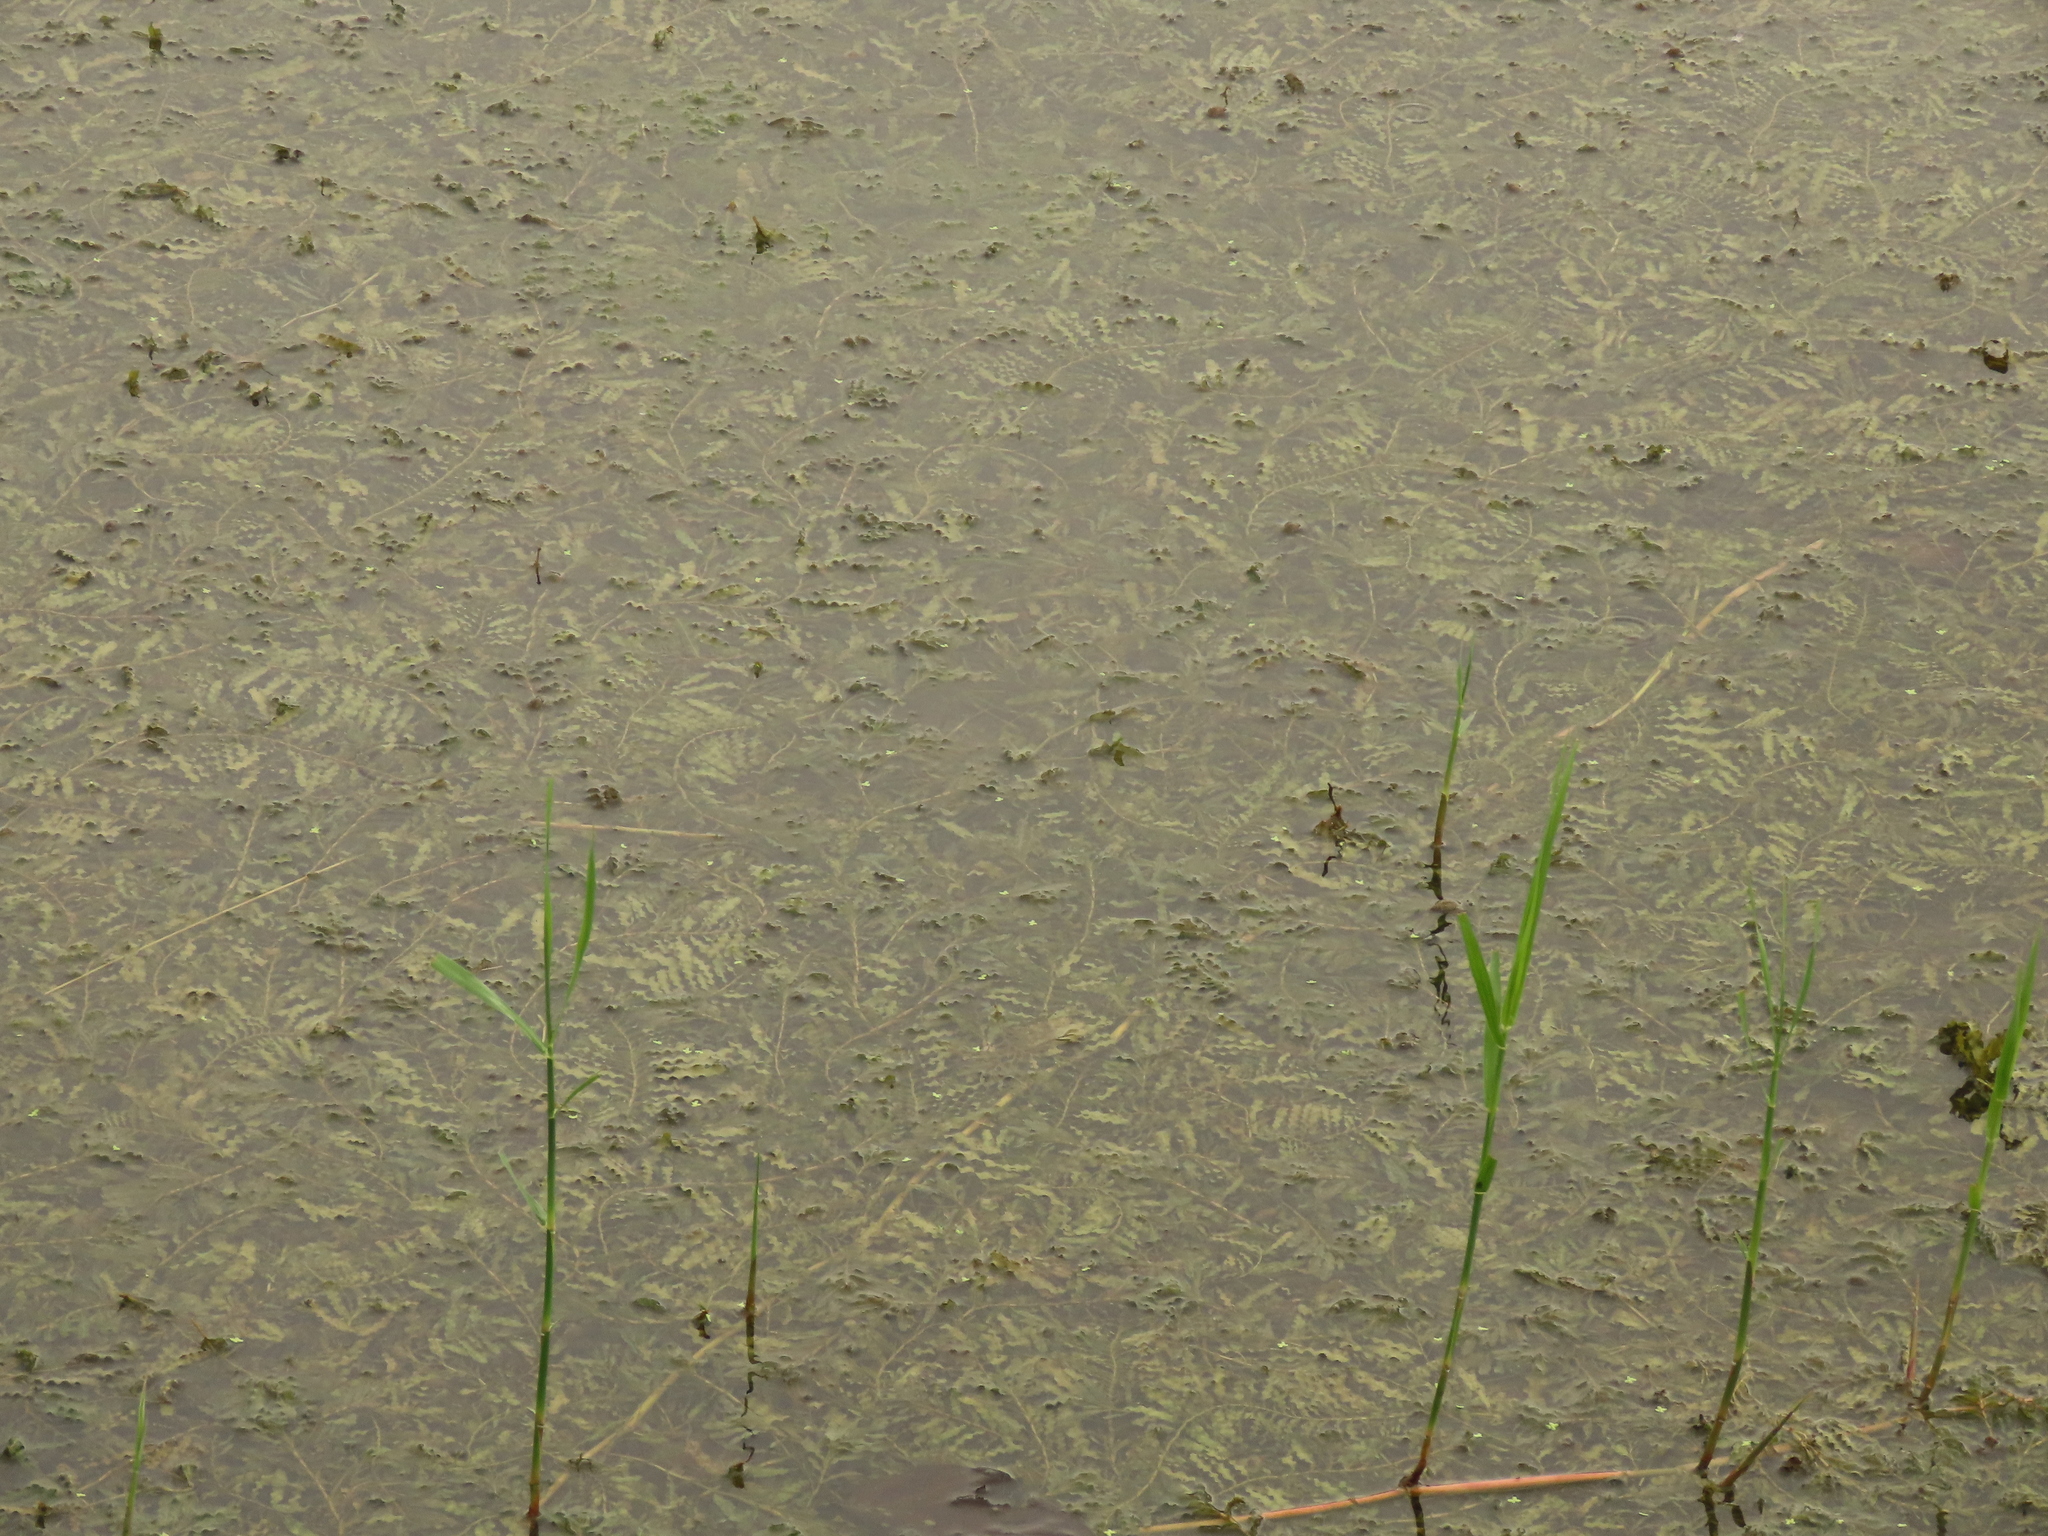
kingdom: Plantae
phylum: Tracheophyta
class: Liliopsida
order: Alismatales
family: Potamogetonaceae
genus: Potamogeton
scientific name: Potamogeton crispus
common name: Curled pondweed
